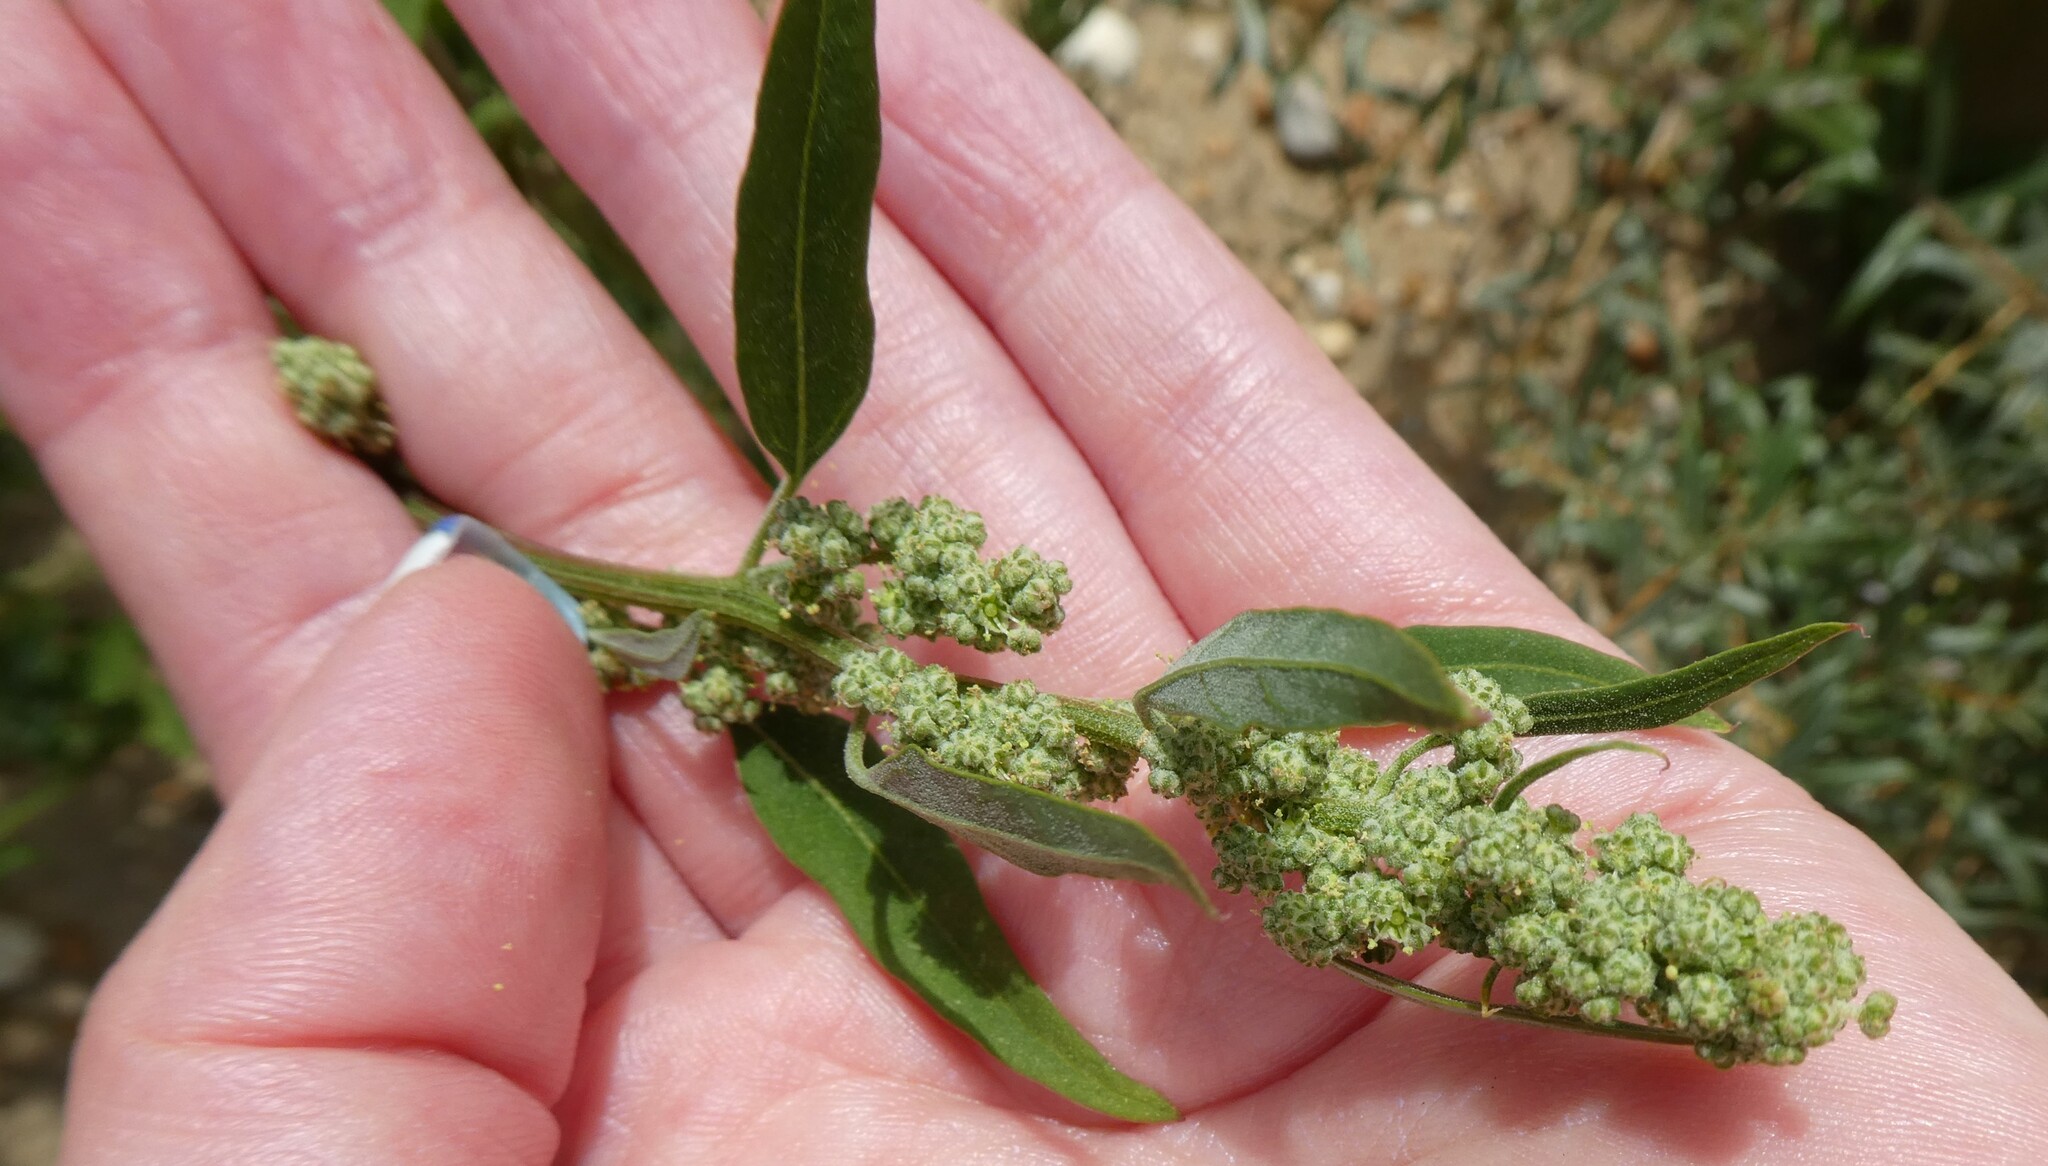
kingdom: Plantae
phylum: Tracheophyta
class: Magnoliopsida
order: Caryophyllales
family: Amaranthaceae
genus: Chenopodium
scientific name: Chenopodium album
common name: Fat-hen
